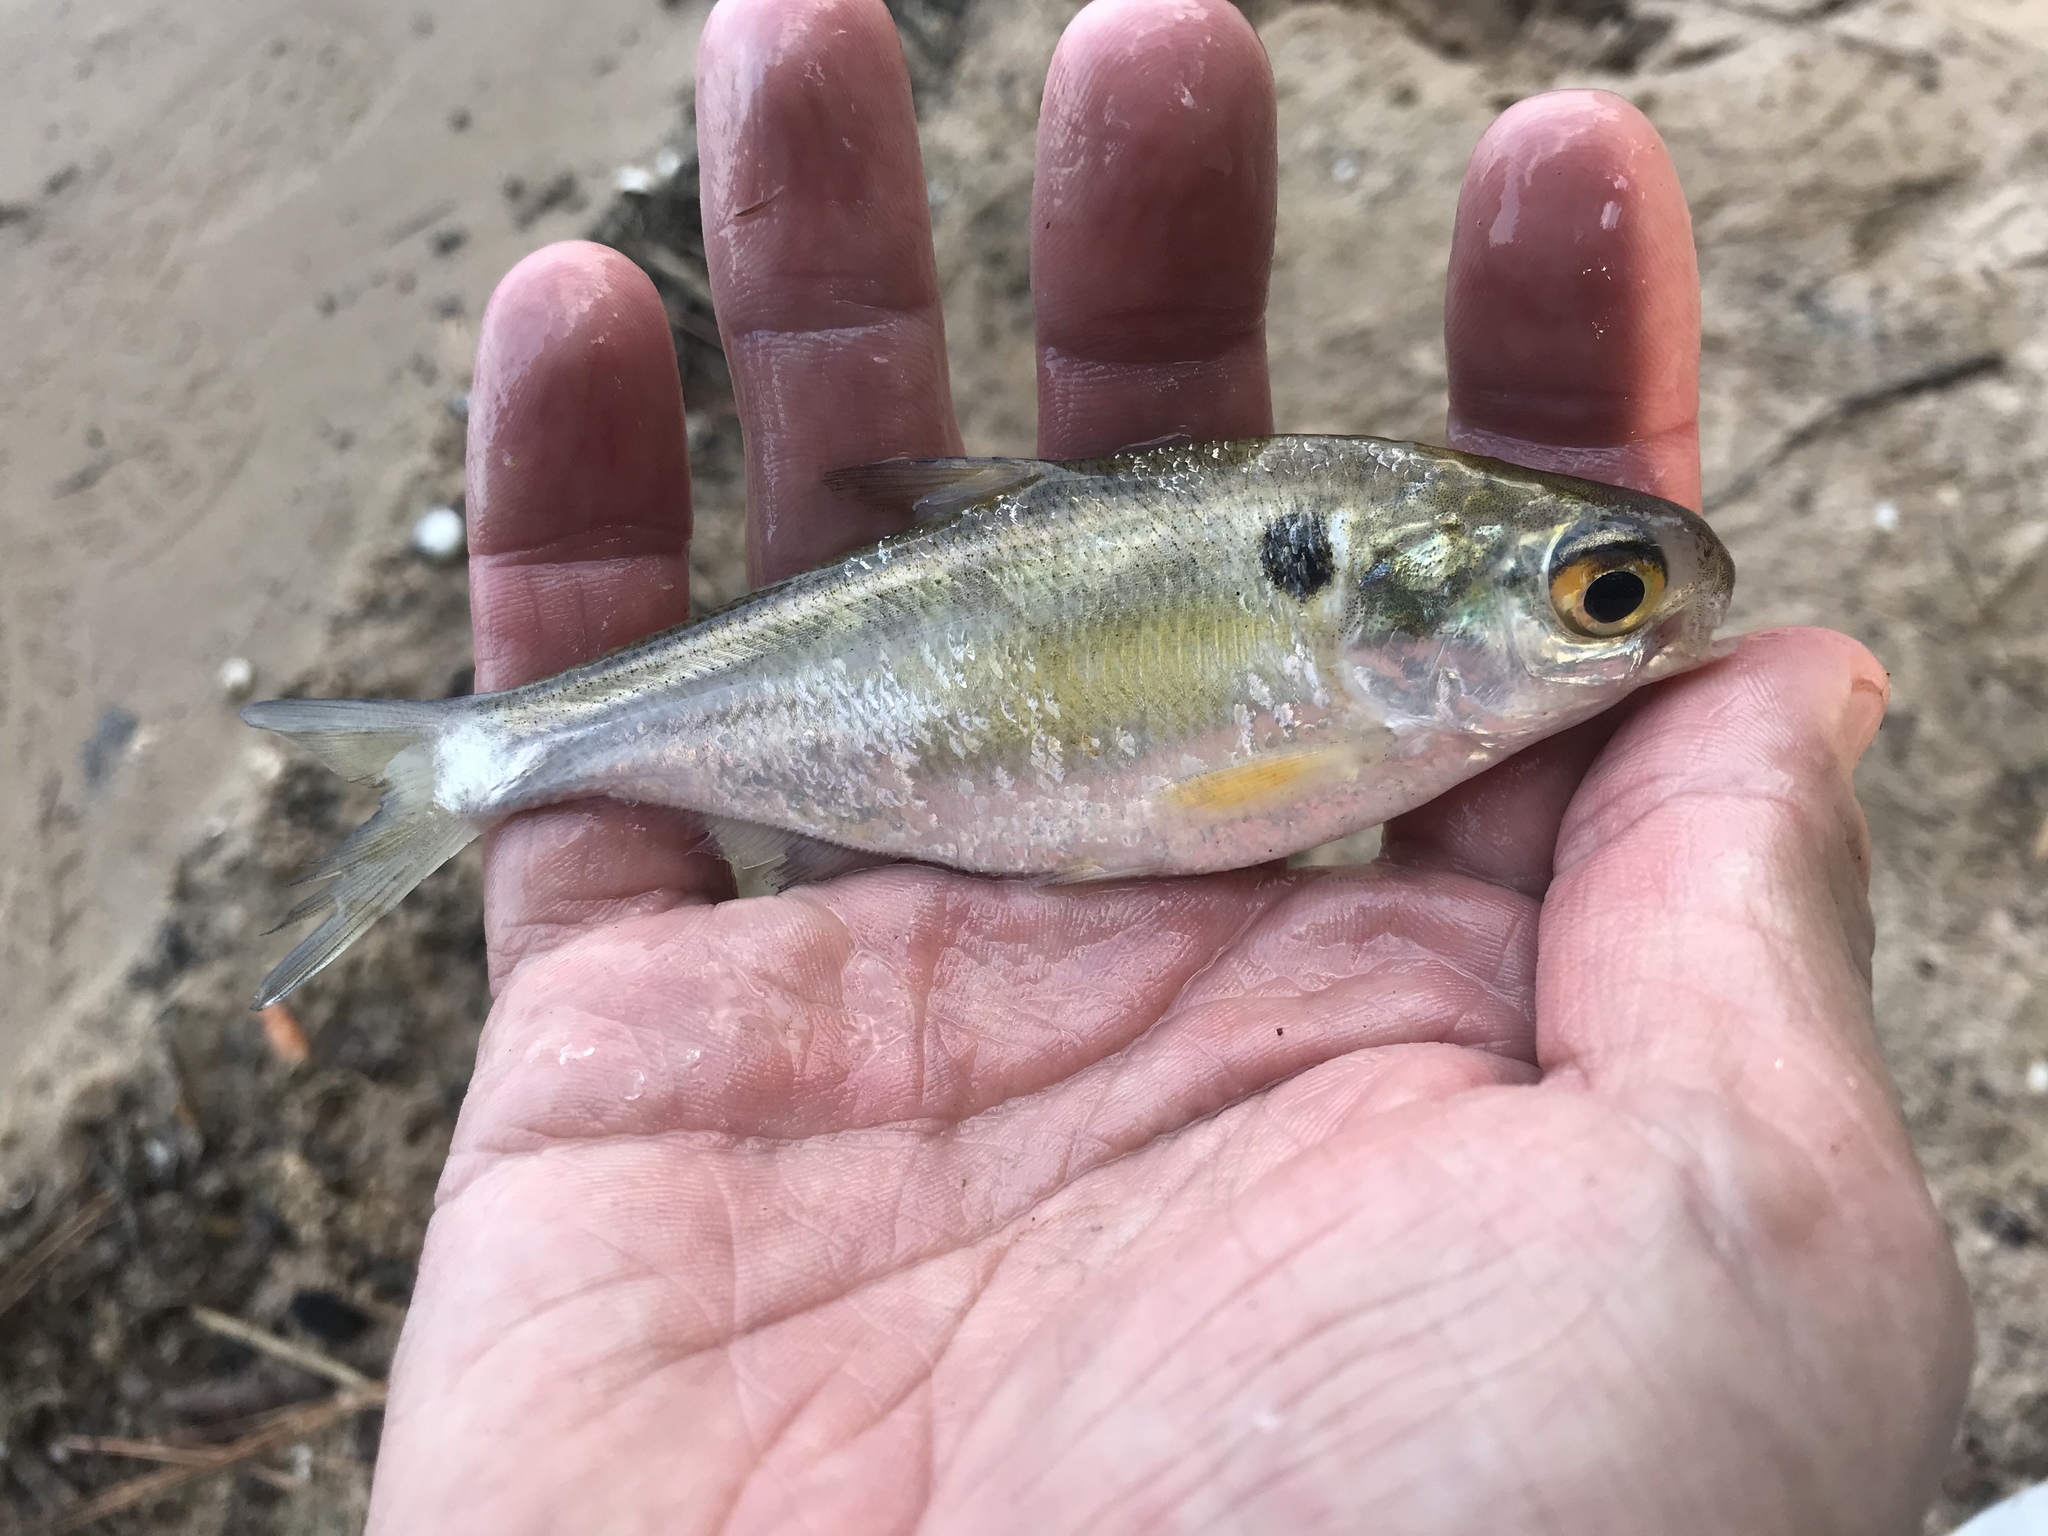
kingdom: Animalia
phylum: Chordata
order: Clupeiformes
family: Clupeidae
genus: Dorosoma
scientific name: Dorosoma cepedianum
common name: Gizzard shad
